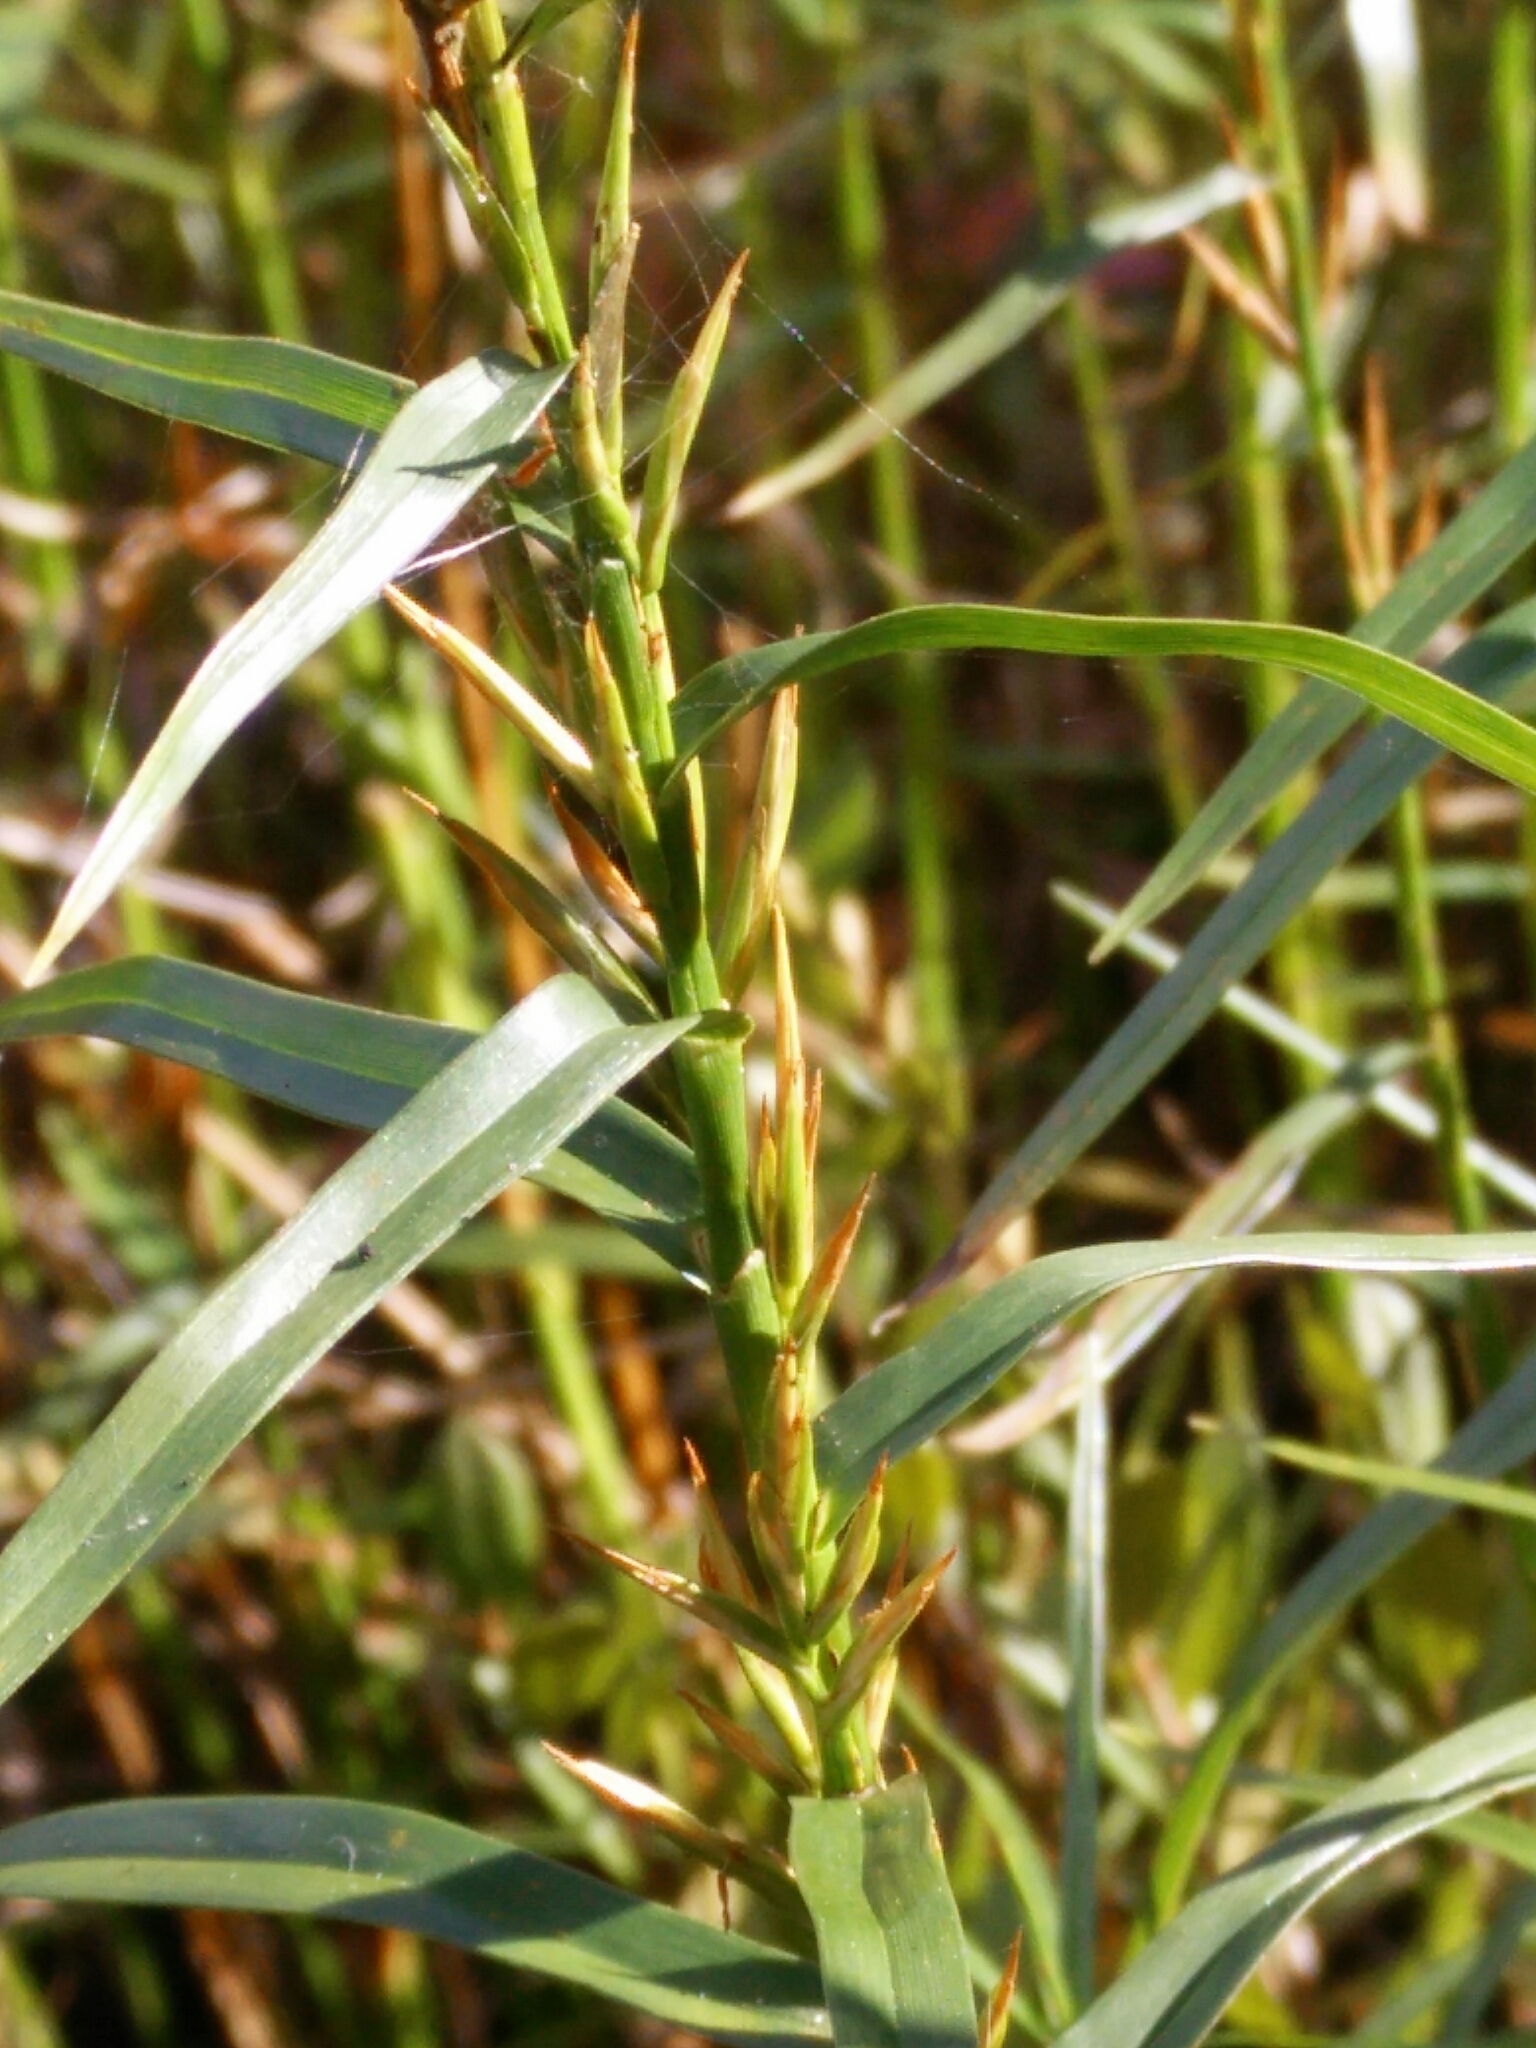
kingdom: Plantae
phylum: Tracheophyta
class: Liliopsida
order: Poales
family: Cyperaceae
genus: Dulichium
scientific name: Dulichium arundinaceum
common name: Three-way sedge
